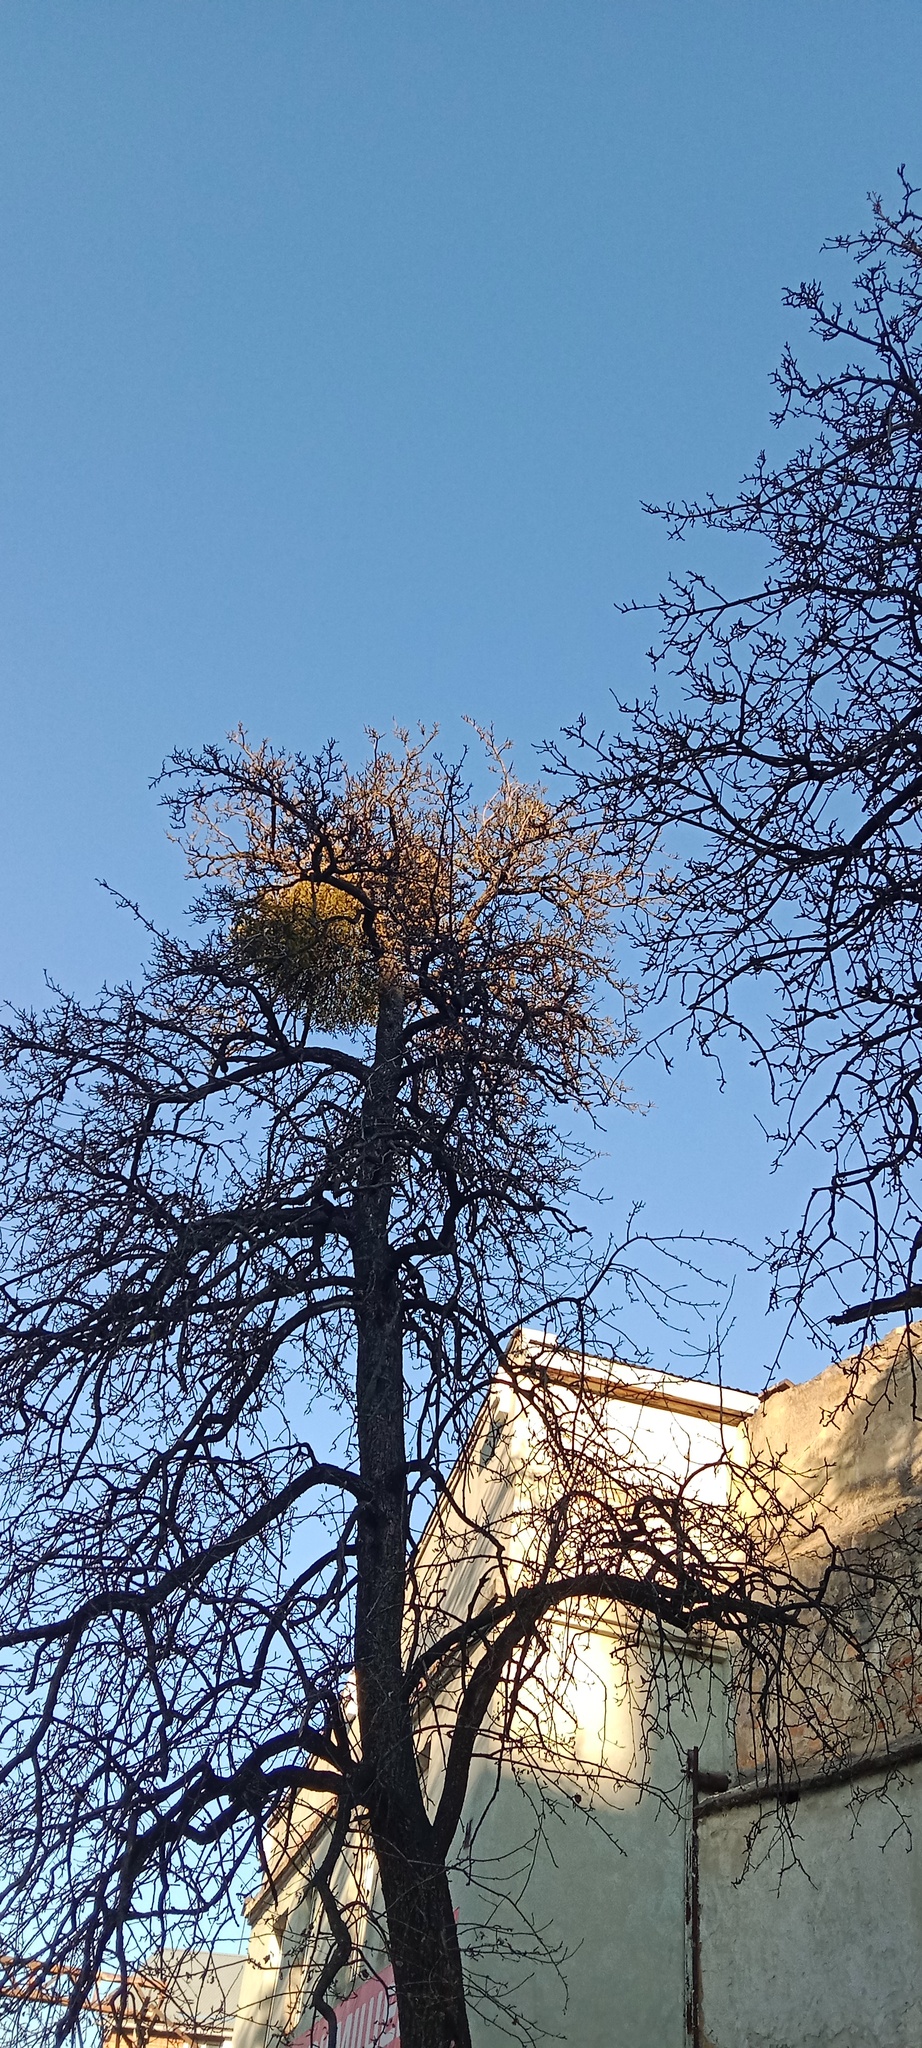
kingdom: Plantae
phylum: Tracheophyta
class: Magnoliopsida
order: Santalales
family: Viscaceae
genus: Viscum
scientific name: Viscum album
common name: Mistletoe
